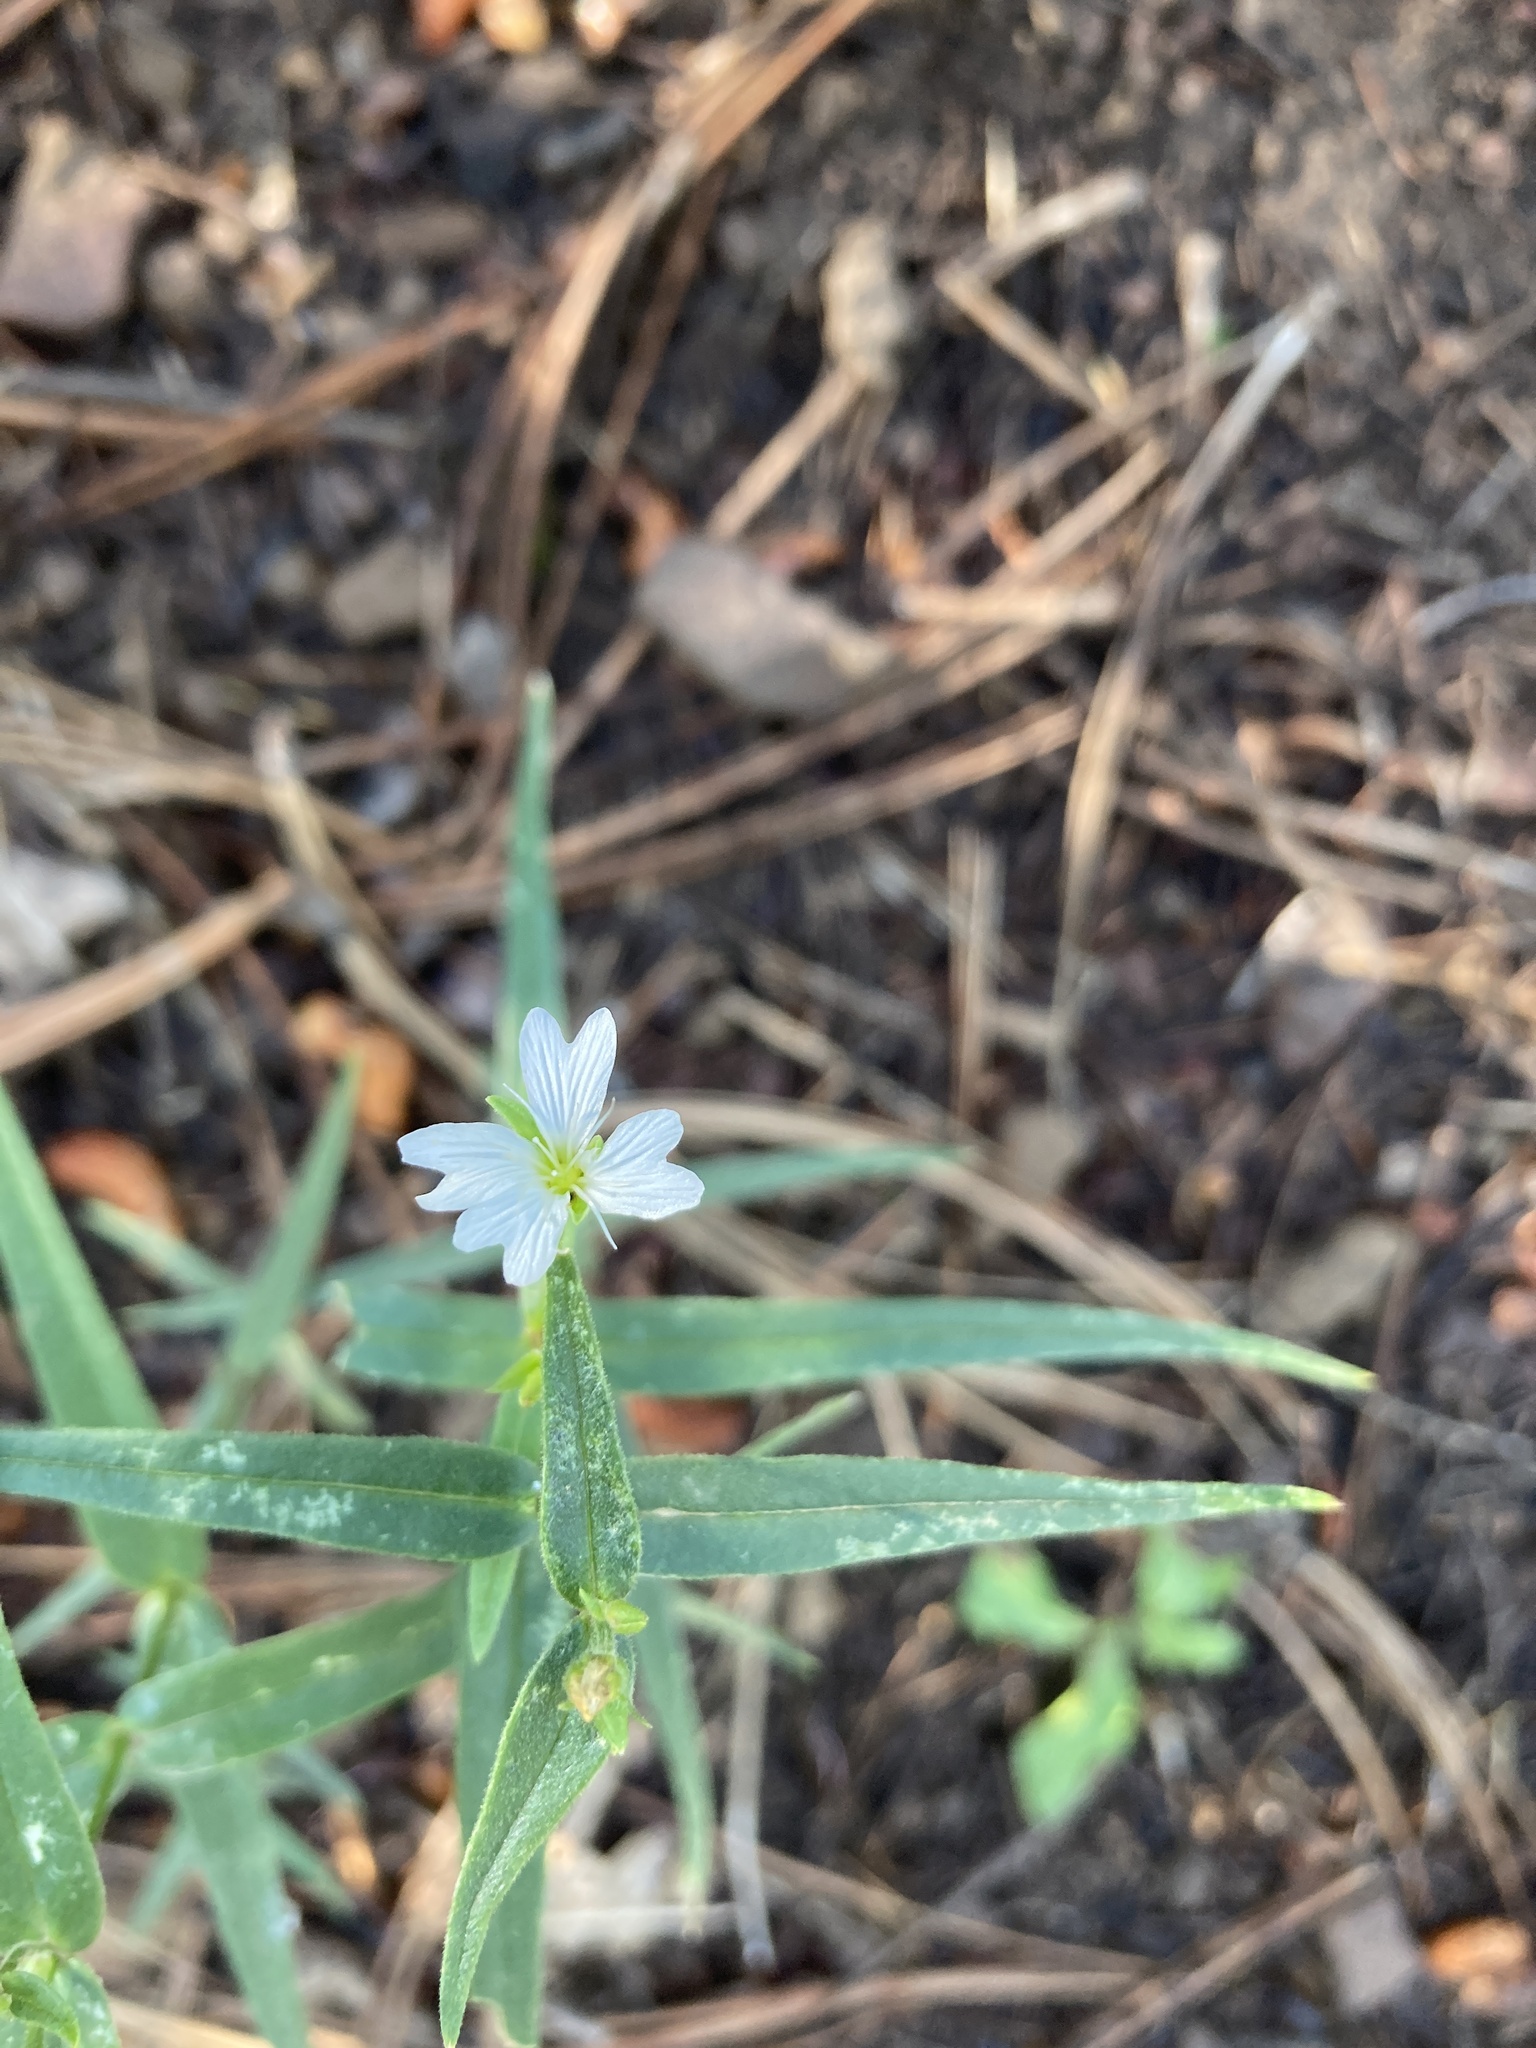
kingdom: Plantae
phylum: Tracheophyta
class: Magnoliopsida
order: Caryophyllales
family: Caryophyllaceae
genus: Schizotechium
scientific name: Schizotechium jamesianum
